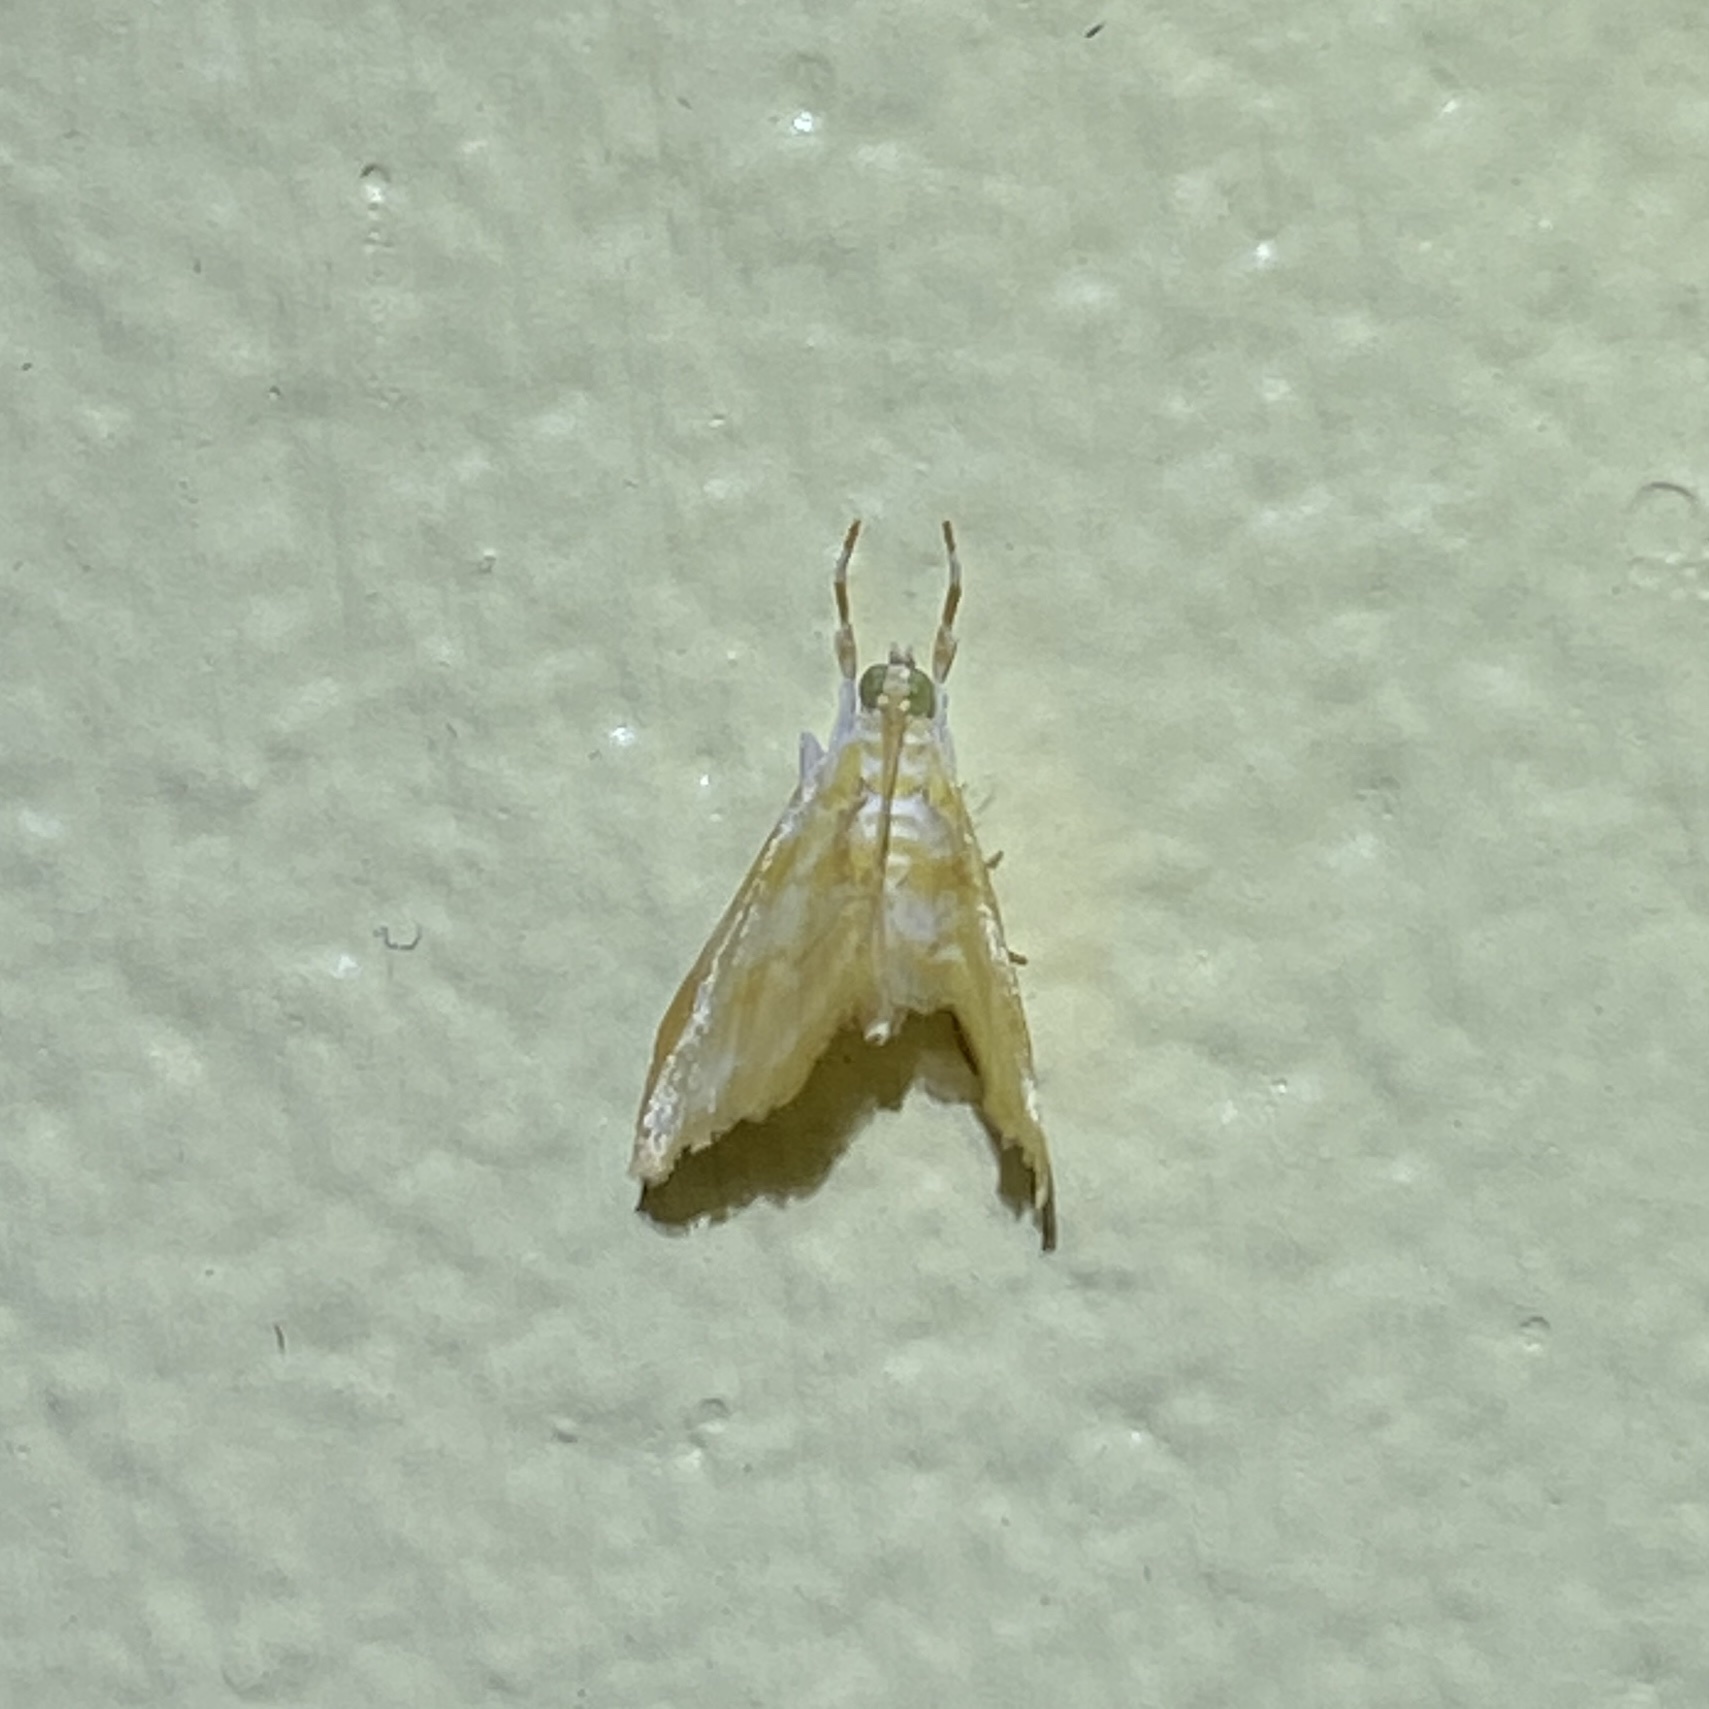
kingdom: Animalia
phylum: Arthropoda
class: Insecta
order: Lepidoptera
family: Crambidae
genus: Lipocosma
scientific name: Lipocosma calla
